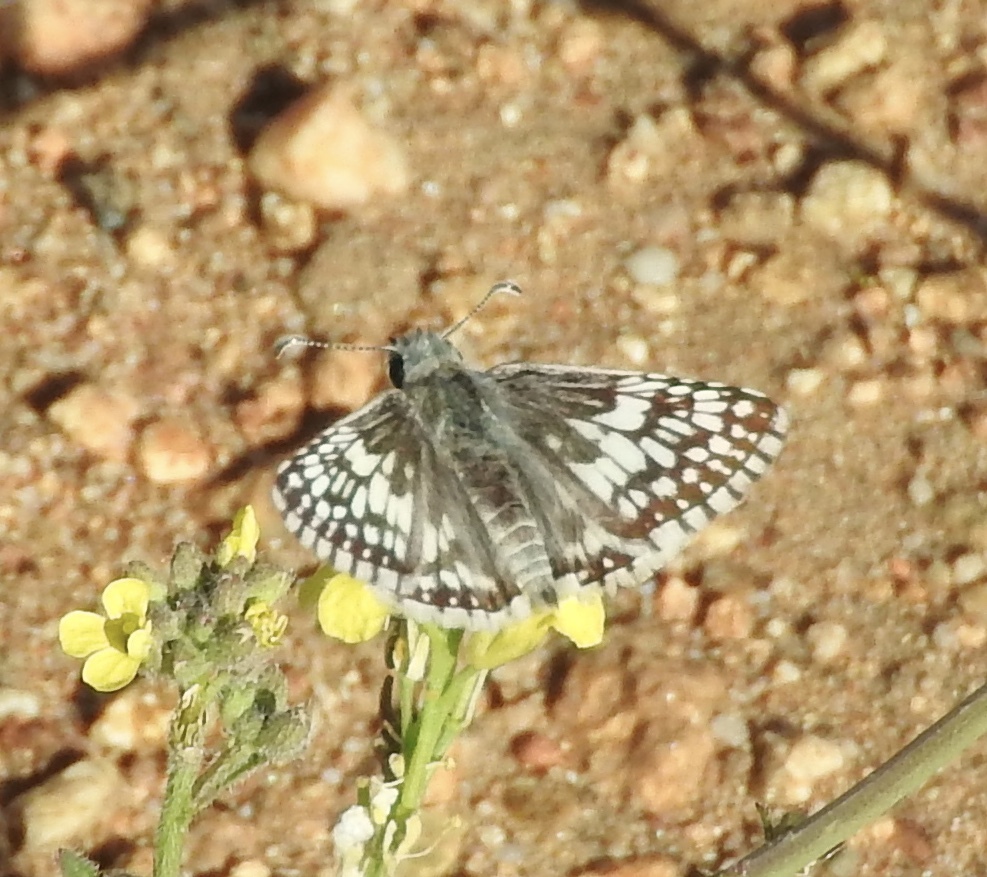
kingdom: Animalia
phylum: Arthropoda
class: Insecta
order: Lepidoptera
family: Hesperiidae
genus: Burnsius
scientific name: Burnsius albezens
